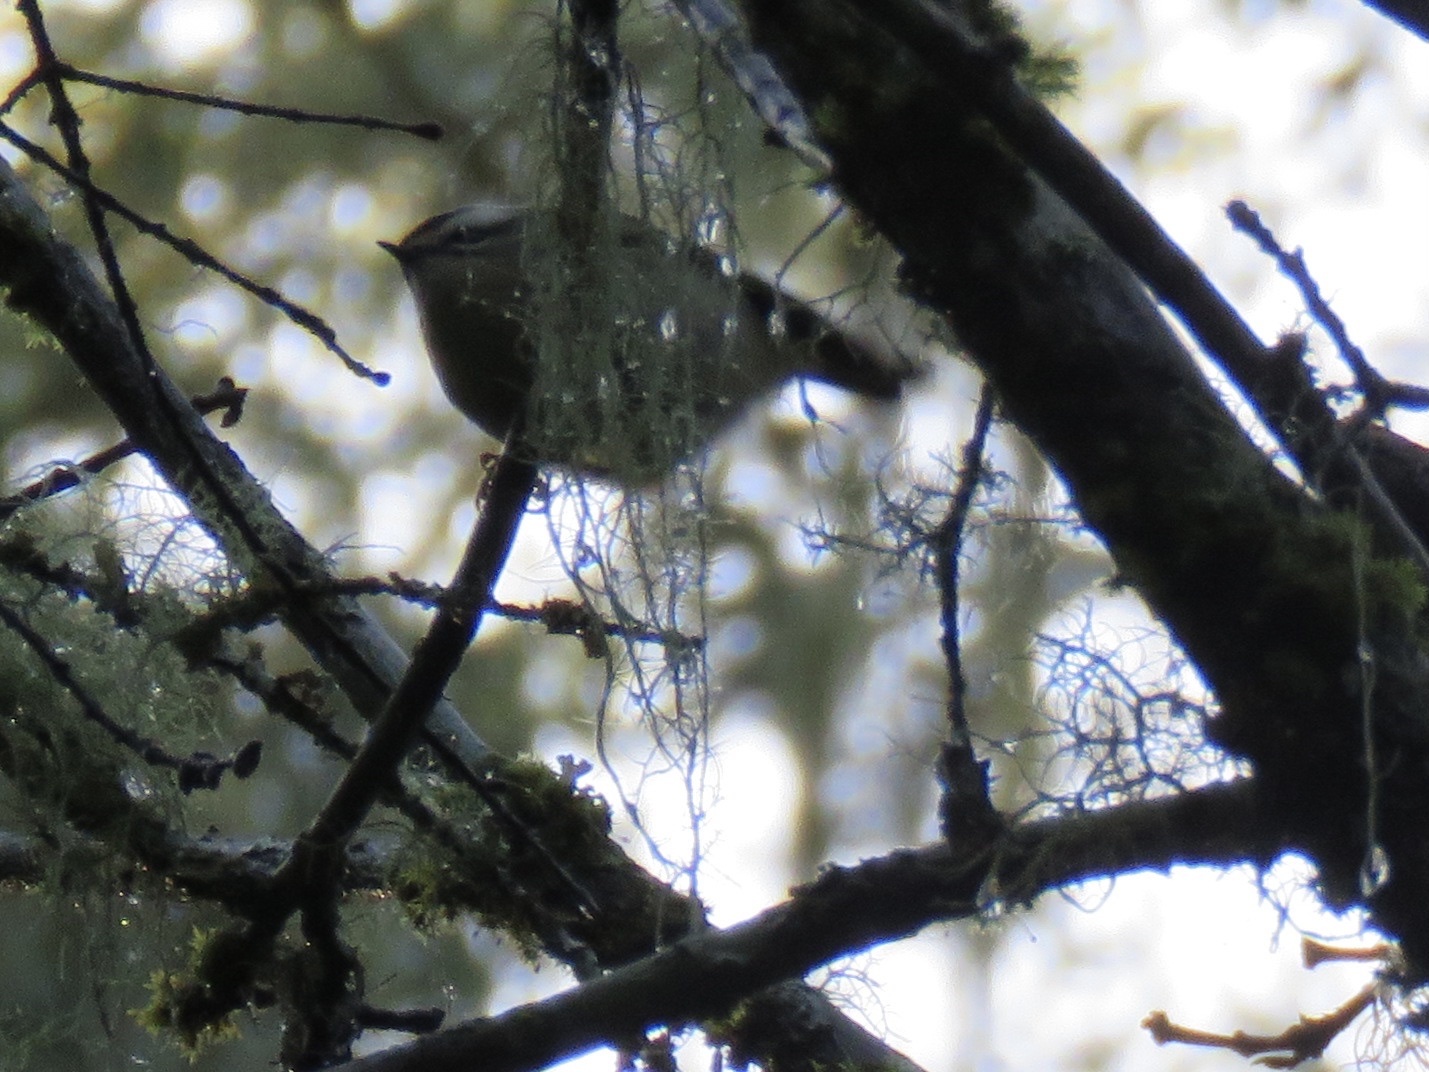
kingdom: Animalia
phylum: Chordata
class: Aves
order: Passeriformes
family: Regulidae
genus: Regulus
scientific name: Regulus satrapa
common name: Golden-crowned kinglet
